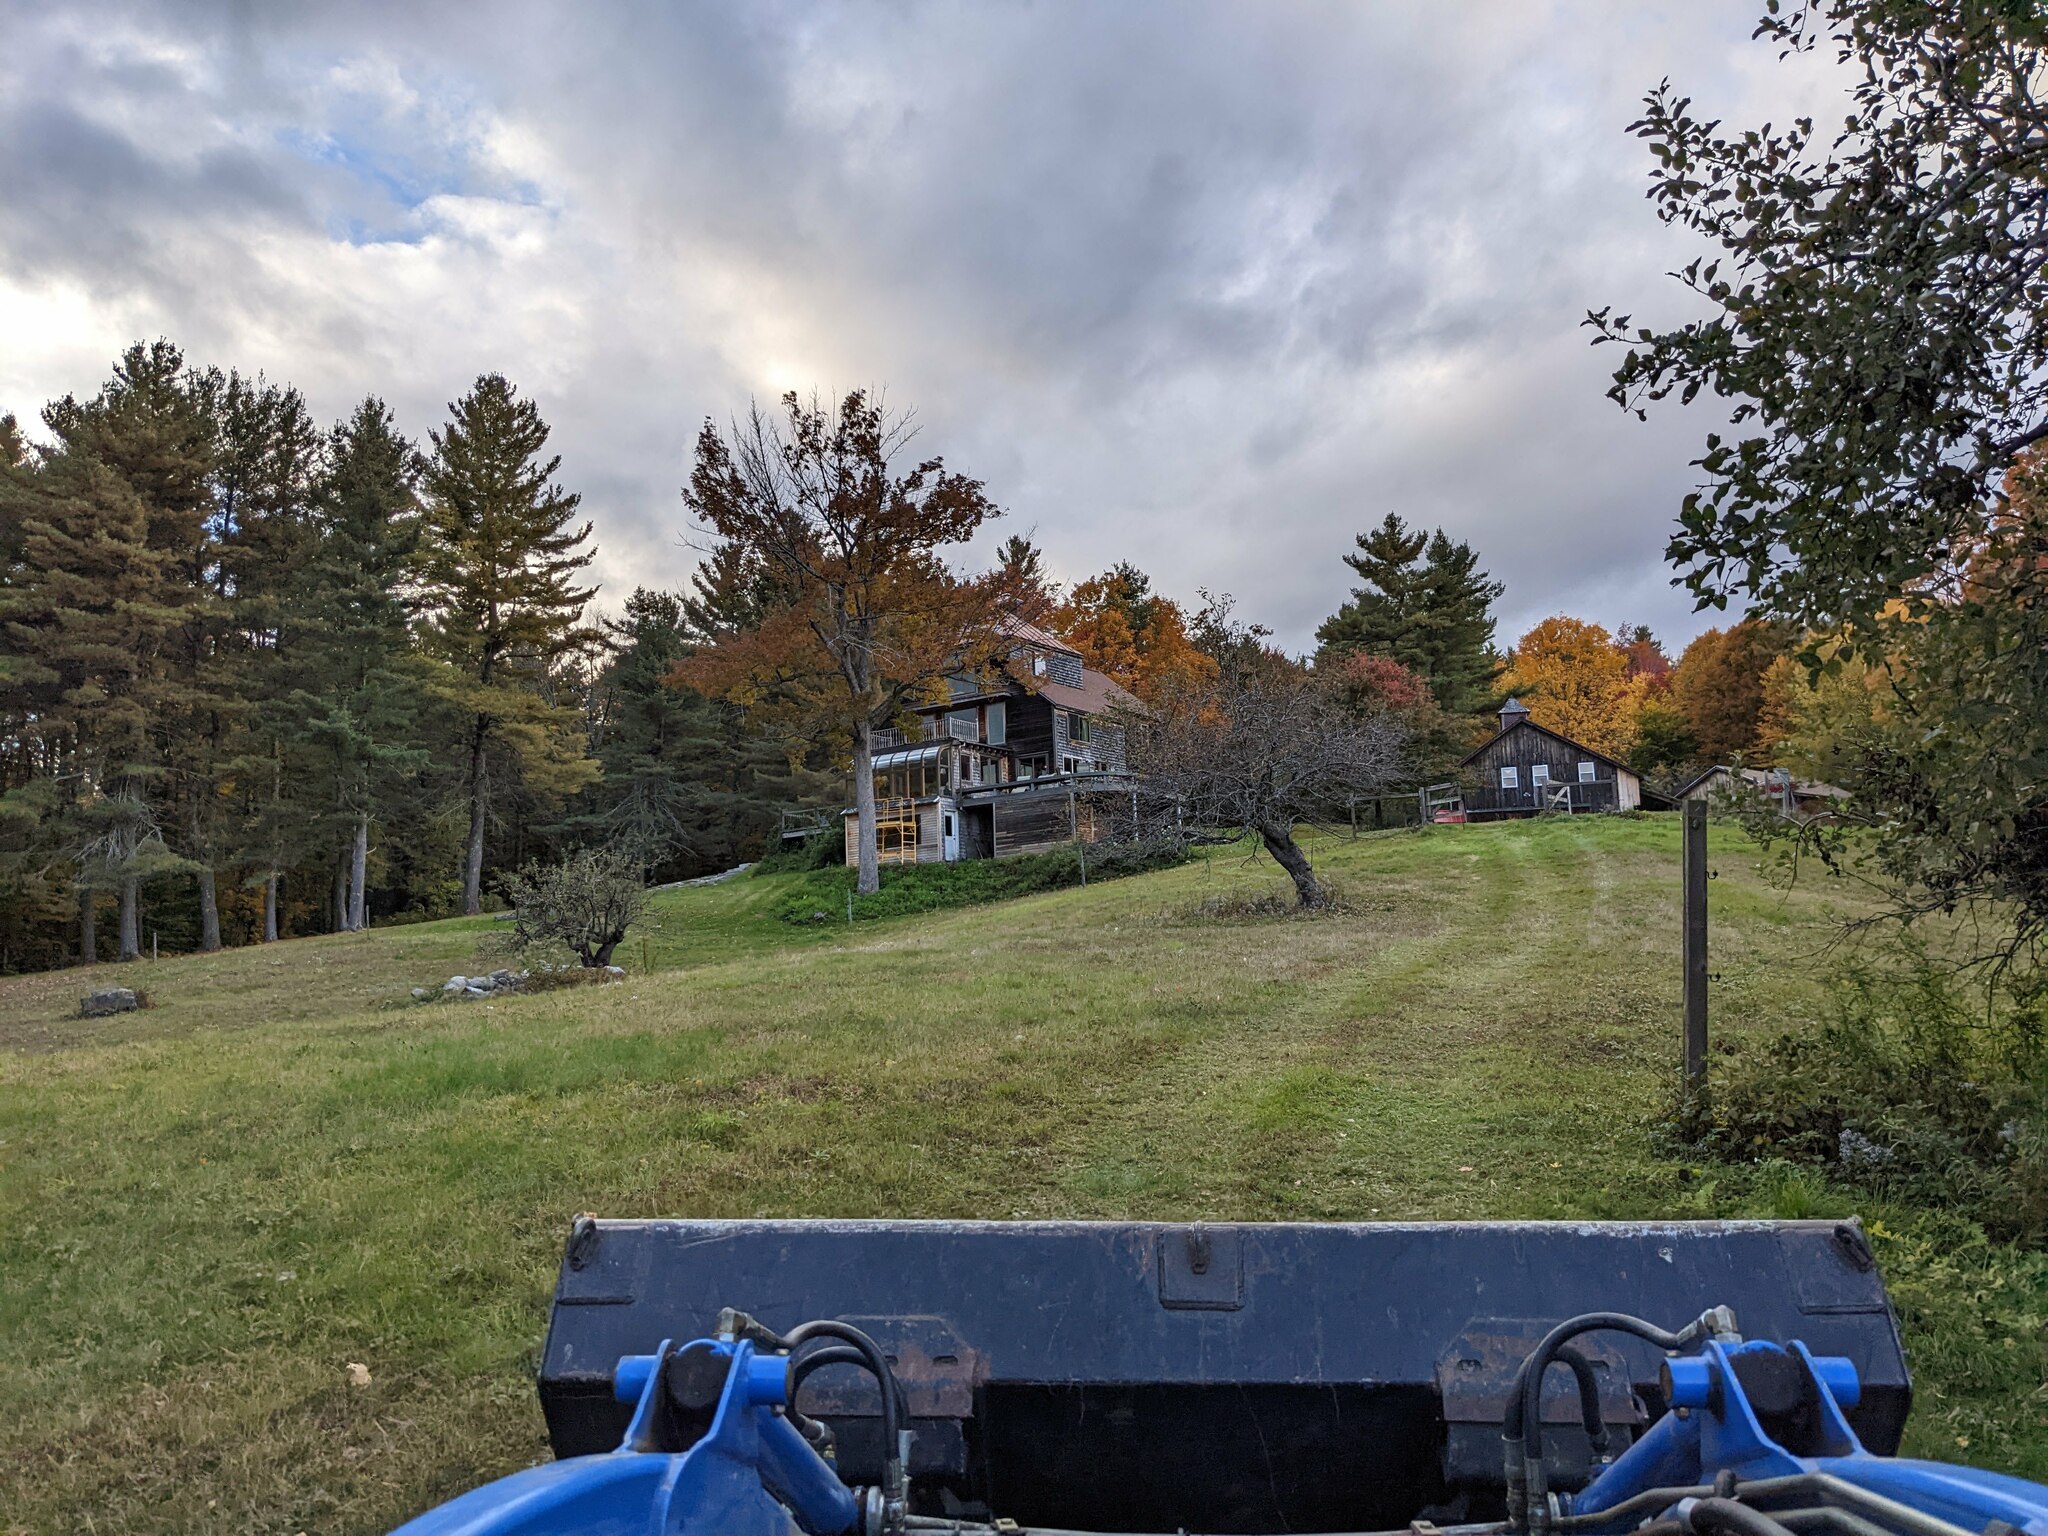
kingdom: Plantae
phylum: Tracheophyta
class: Pinopsida
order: Pinales
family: Pinaceae
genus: Pinus
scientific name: Pinus strobus
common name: Weymouth pine
